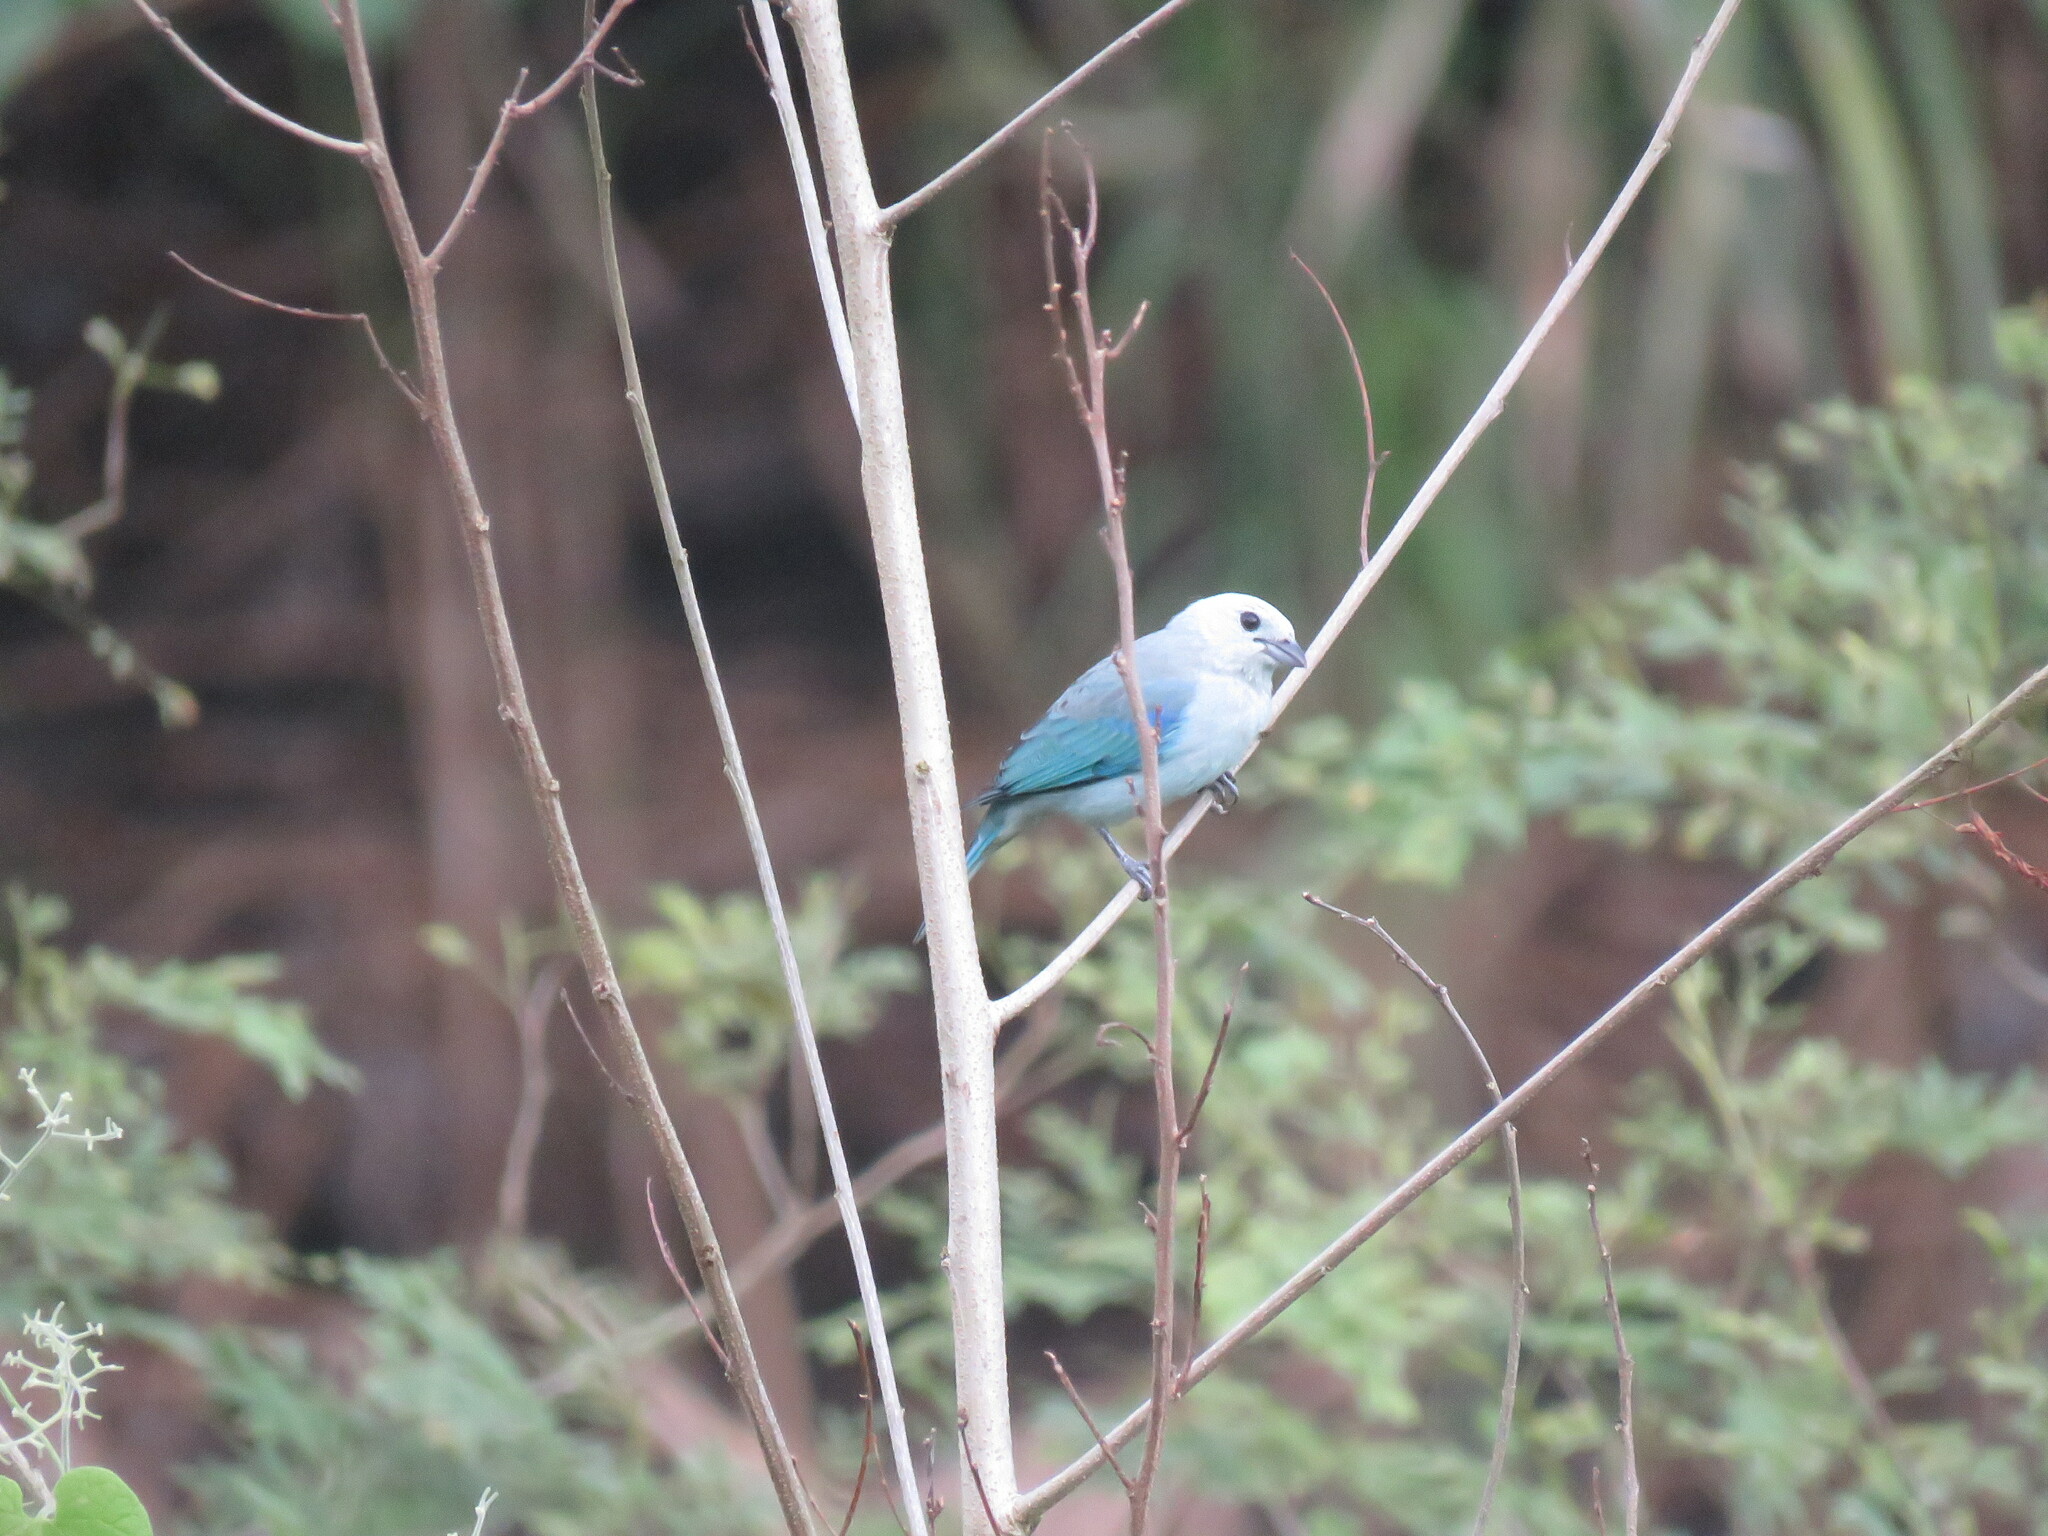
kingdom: Animalia
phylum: Chordata
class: Aves
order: Passeriformes
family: Thraupidae
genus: Thraupis
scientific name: Thraupis episcopus
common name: Blue-grey tanager
